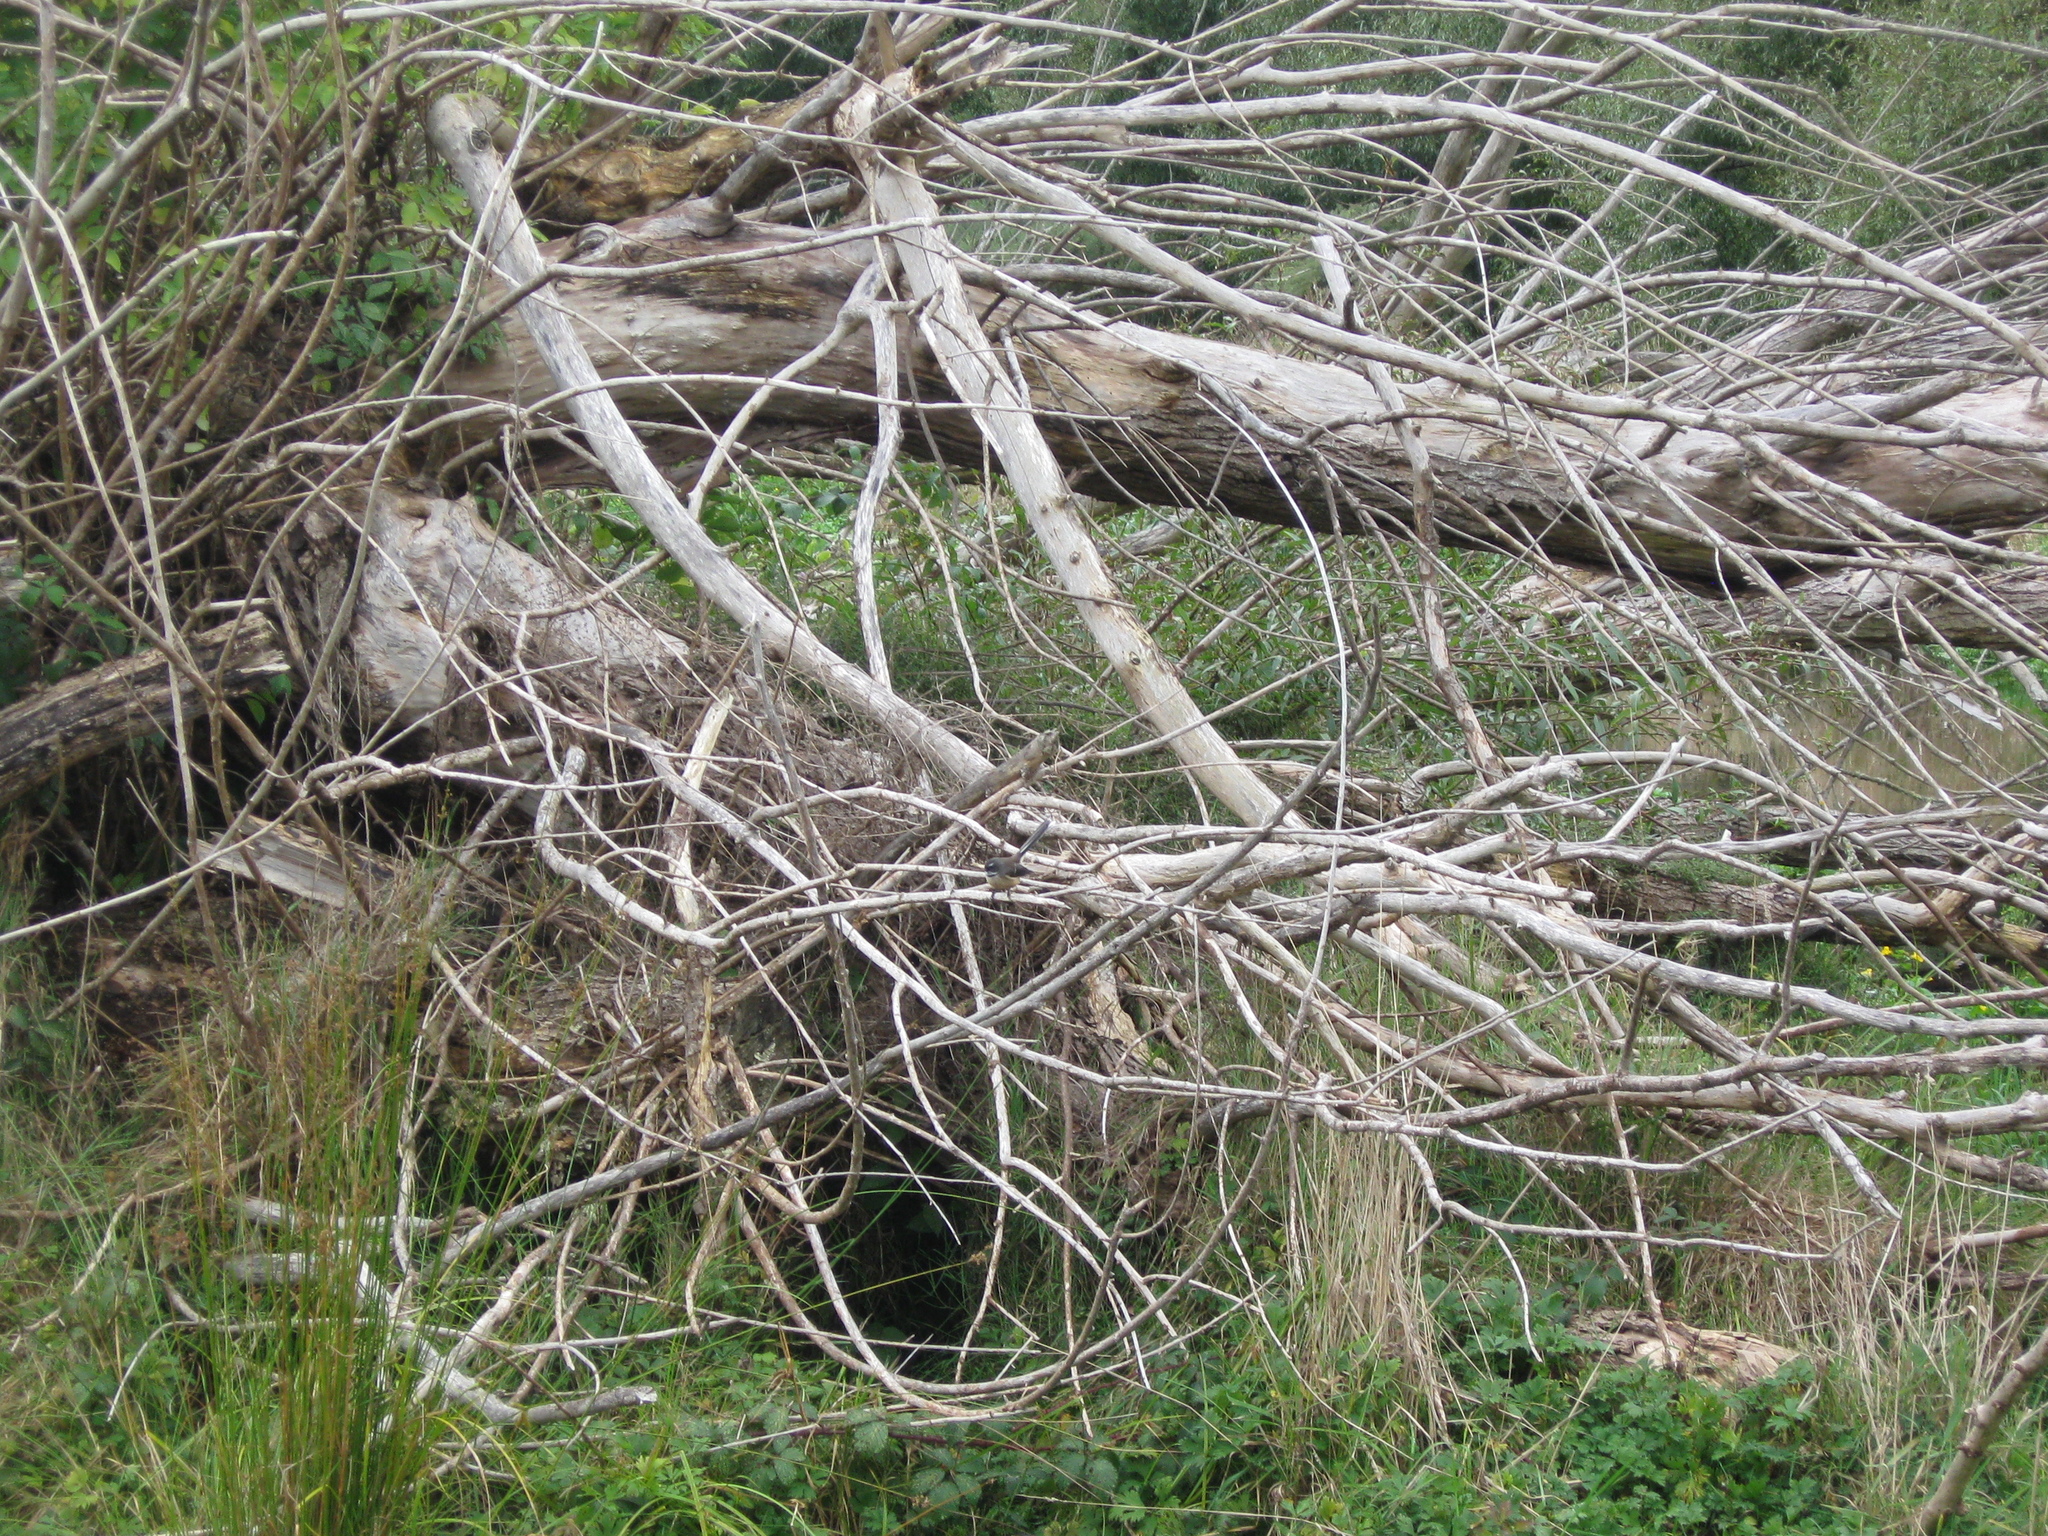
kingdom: Animalia
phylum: Chordata
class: Aves
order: Passeriformes
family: Rhipiduridae
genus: Rhipidura
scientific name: Rhipidura fuliginosa
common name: New zealand fantail
